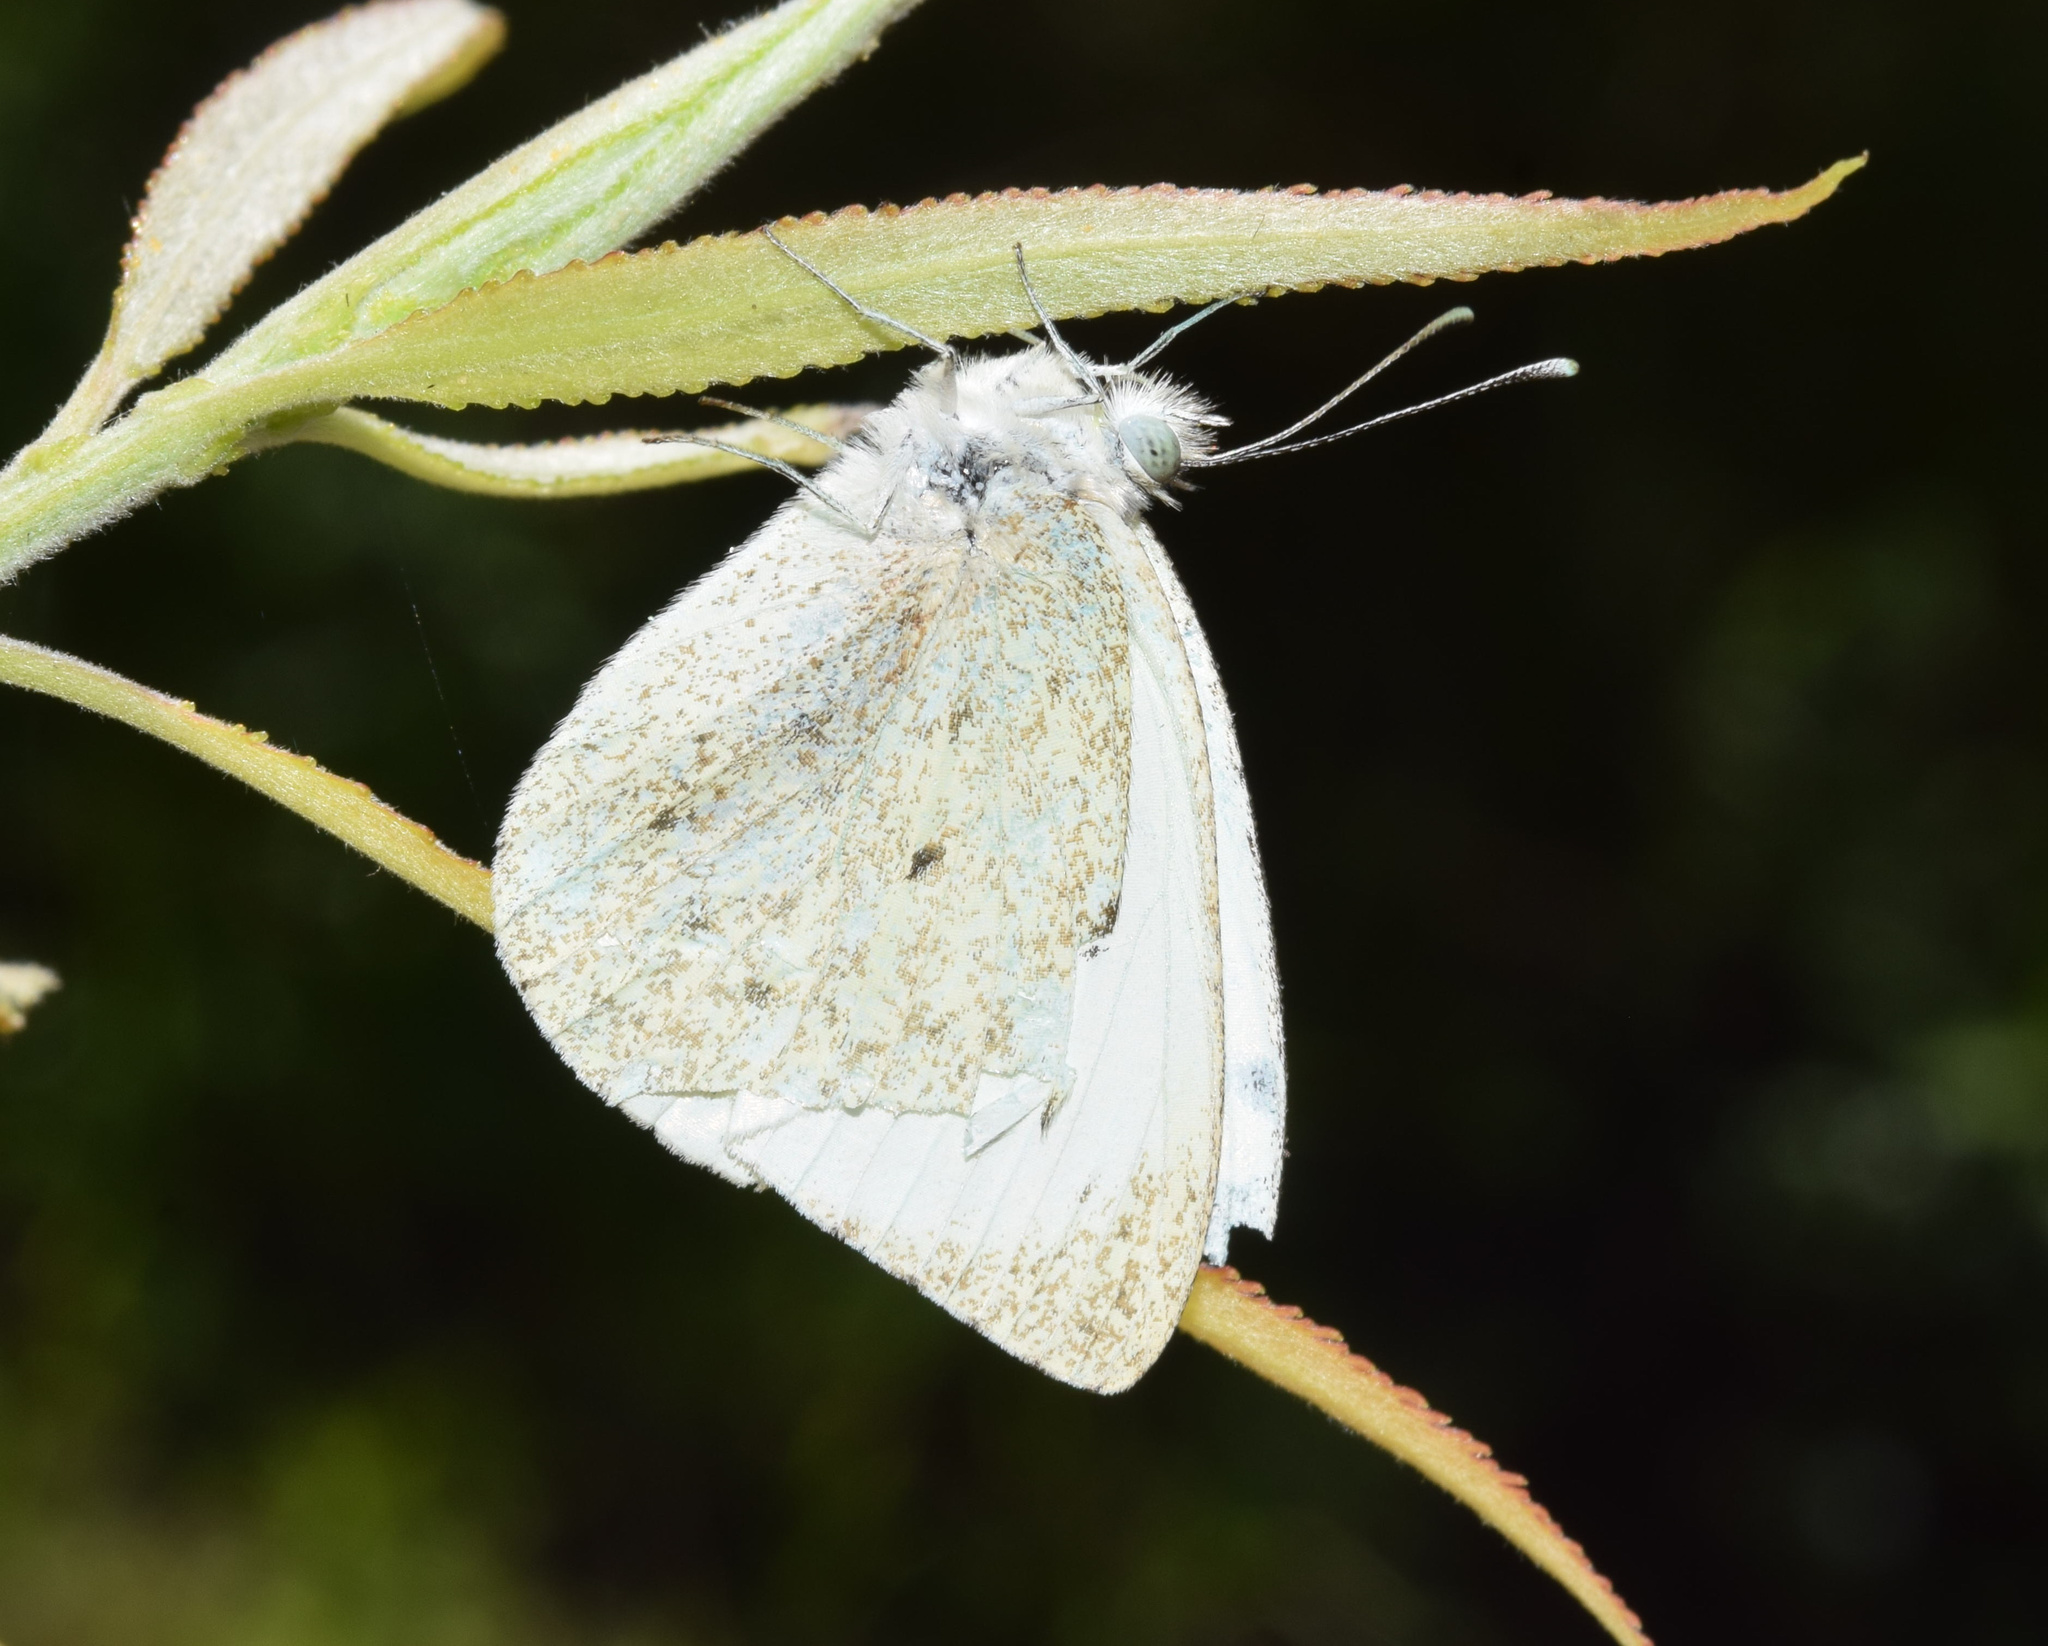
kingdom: Animalia
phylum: Arthropoda
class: Insecta
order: Lepidoptera
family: Pieridae
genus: Dixeia
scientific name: Dixeia charina
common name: African small white
